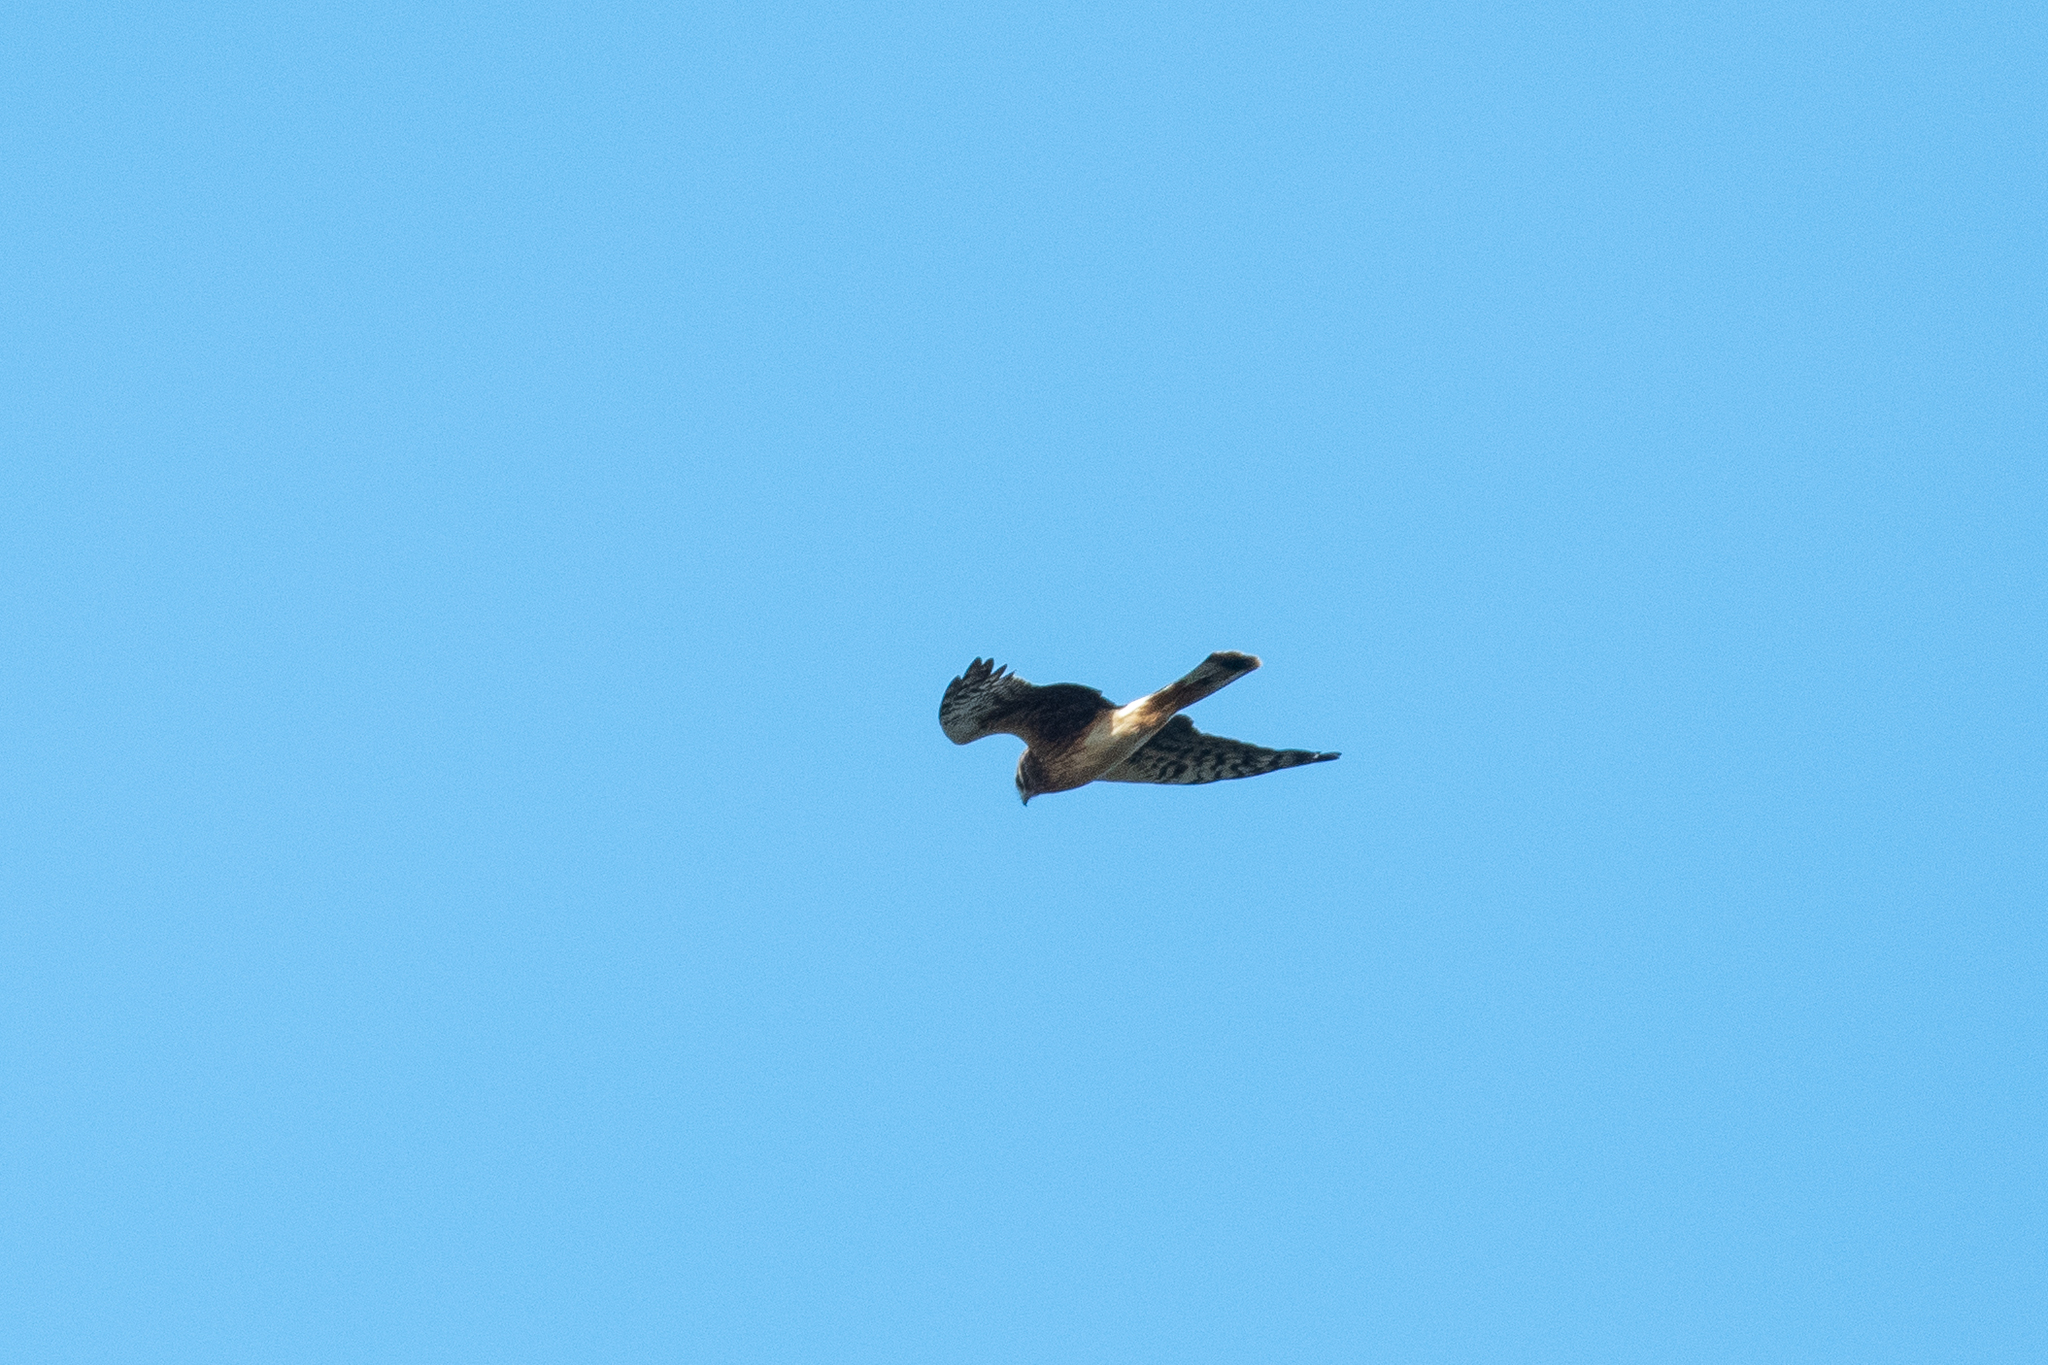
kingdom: Animalia
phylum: Chordata
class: Aves
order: Accipitriformes
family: Accipitridae
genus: Circus
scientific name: Circus cyaneus
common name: Hen harrier
